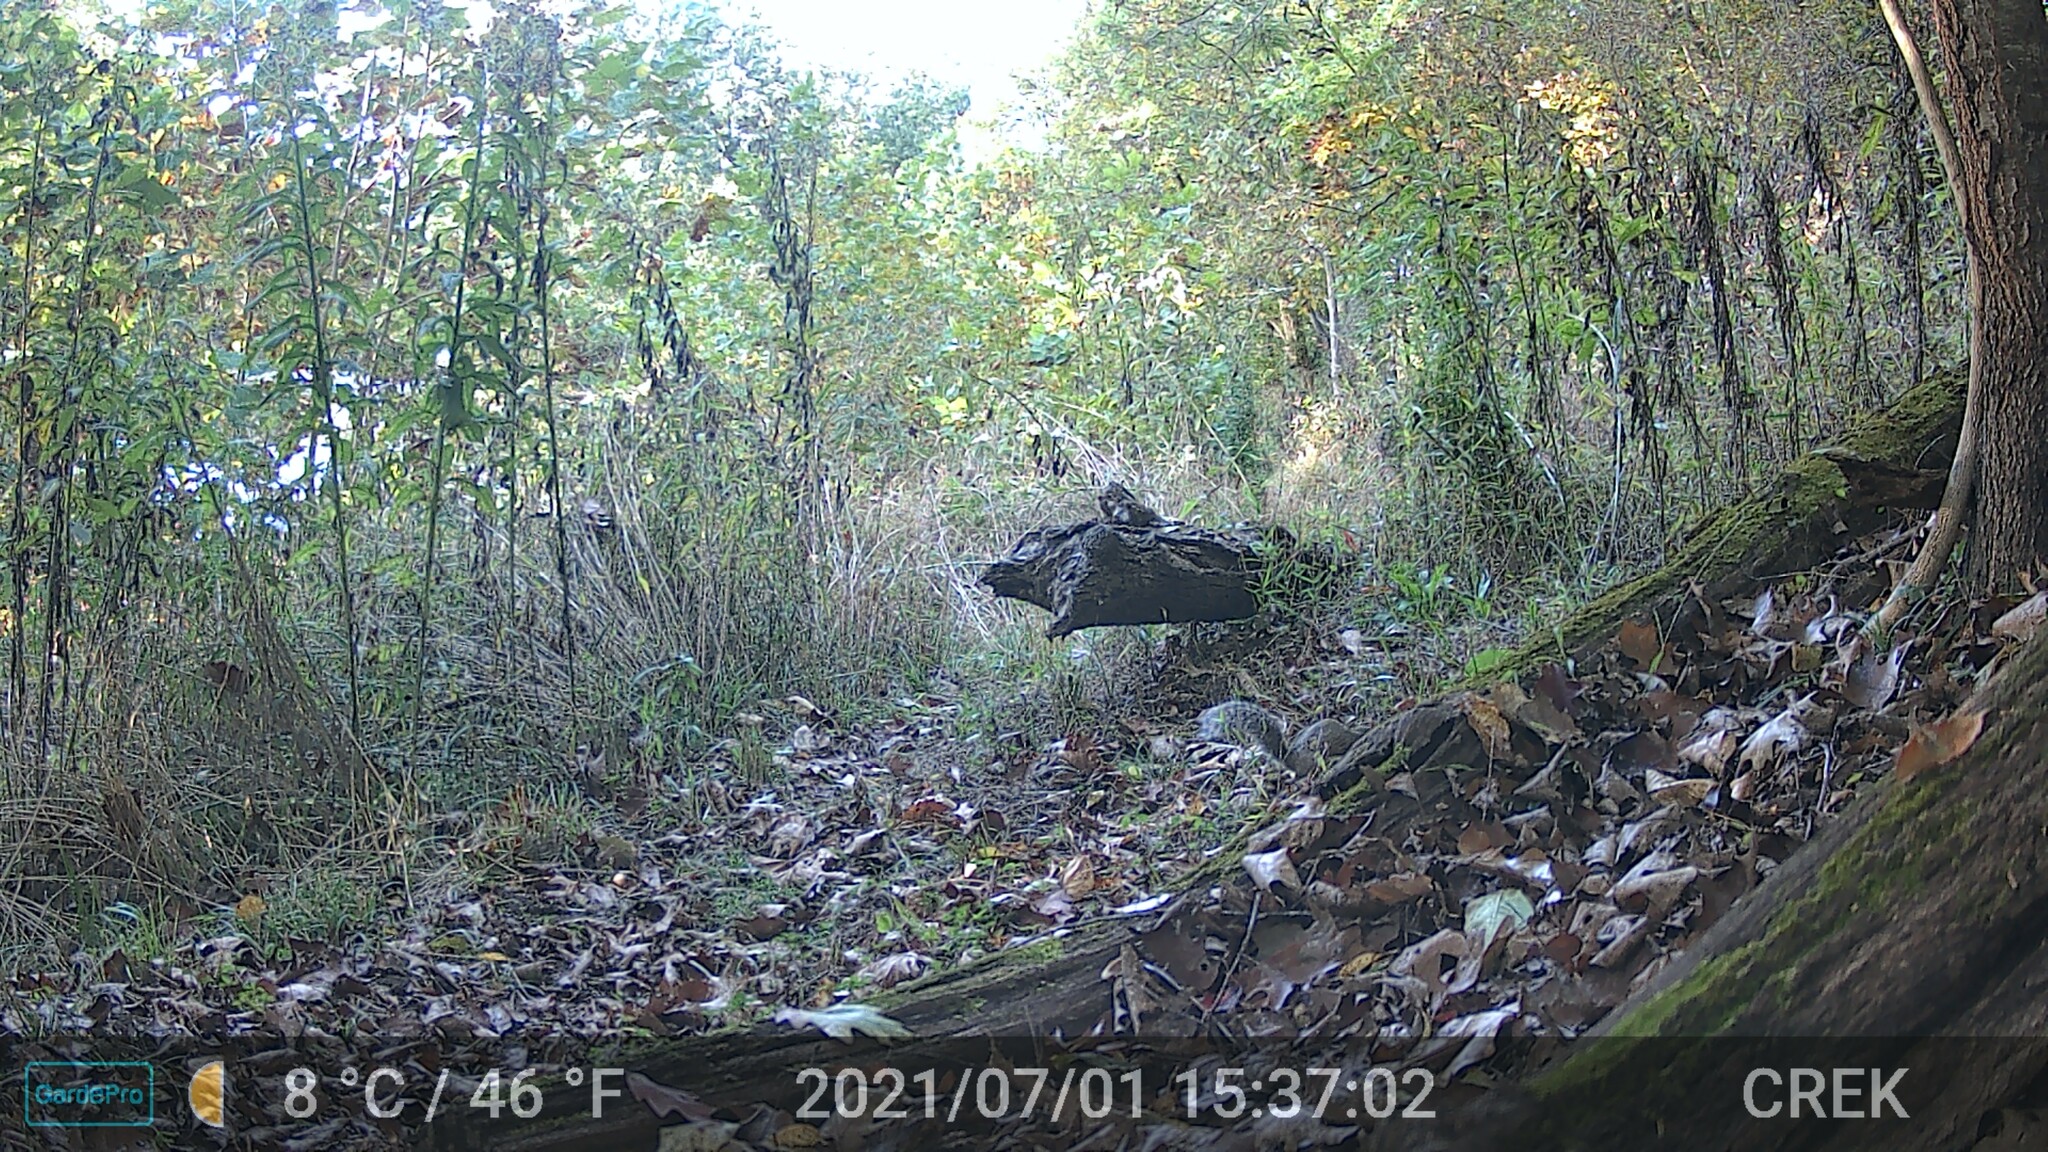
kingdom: Animalia
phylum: Chordata
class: Mammalia
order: Rodentia
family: Sciuridae
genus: Sciurus
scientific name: Sciurus carolinensis
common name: Eastern gray squirrel
